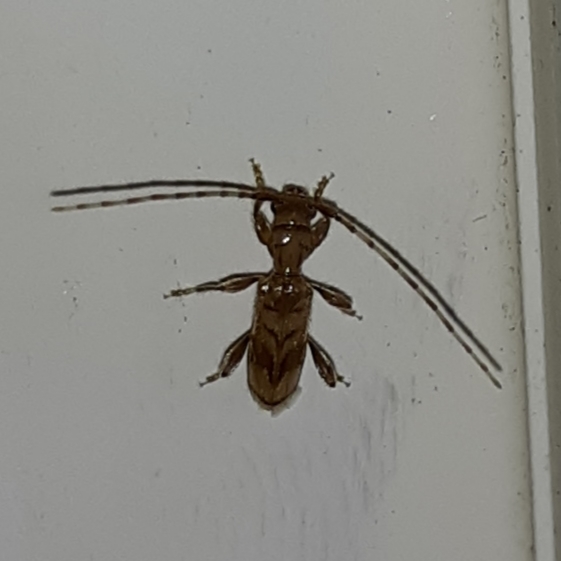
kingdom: Animalia
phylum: Arthropoda
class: Insecta
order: Coleoptera
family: Cerambycidae
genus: Obrium
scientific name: Obrium maculatum
